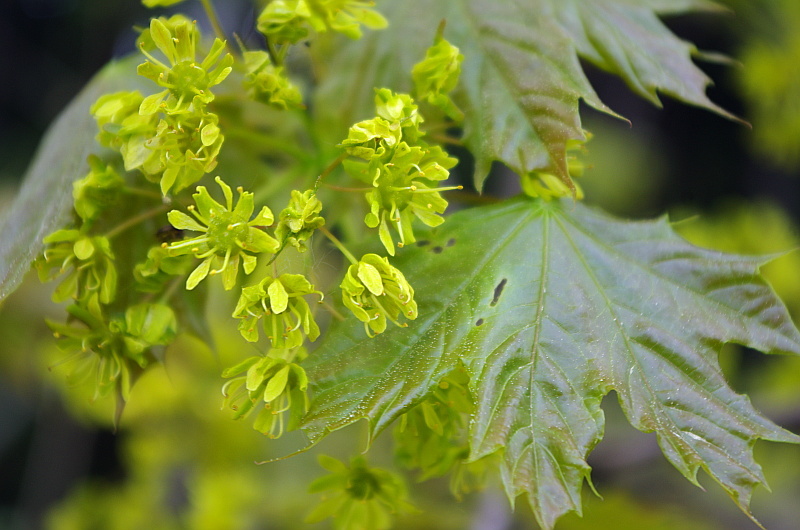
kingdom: Plantae
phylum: Tracheophyta
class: Magnoliopsida
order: Sapindales
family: Sapindaceae
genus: Acer
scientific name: Acer platanoides
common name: Norway maple
